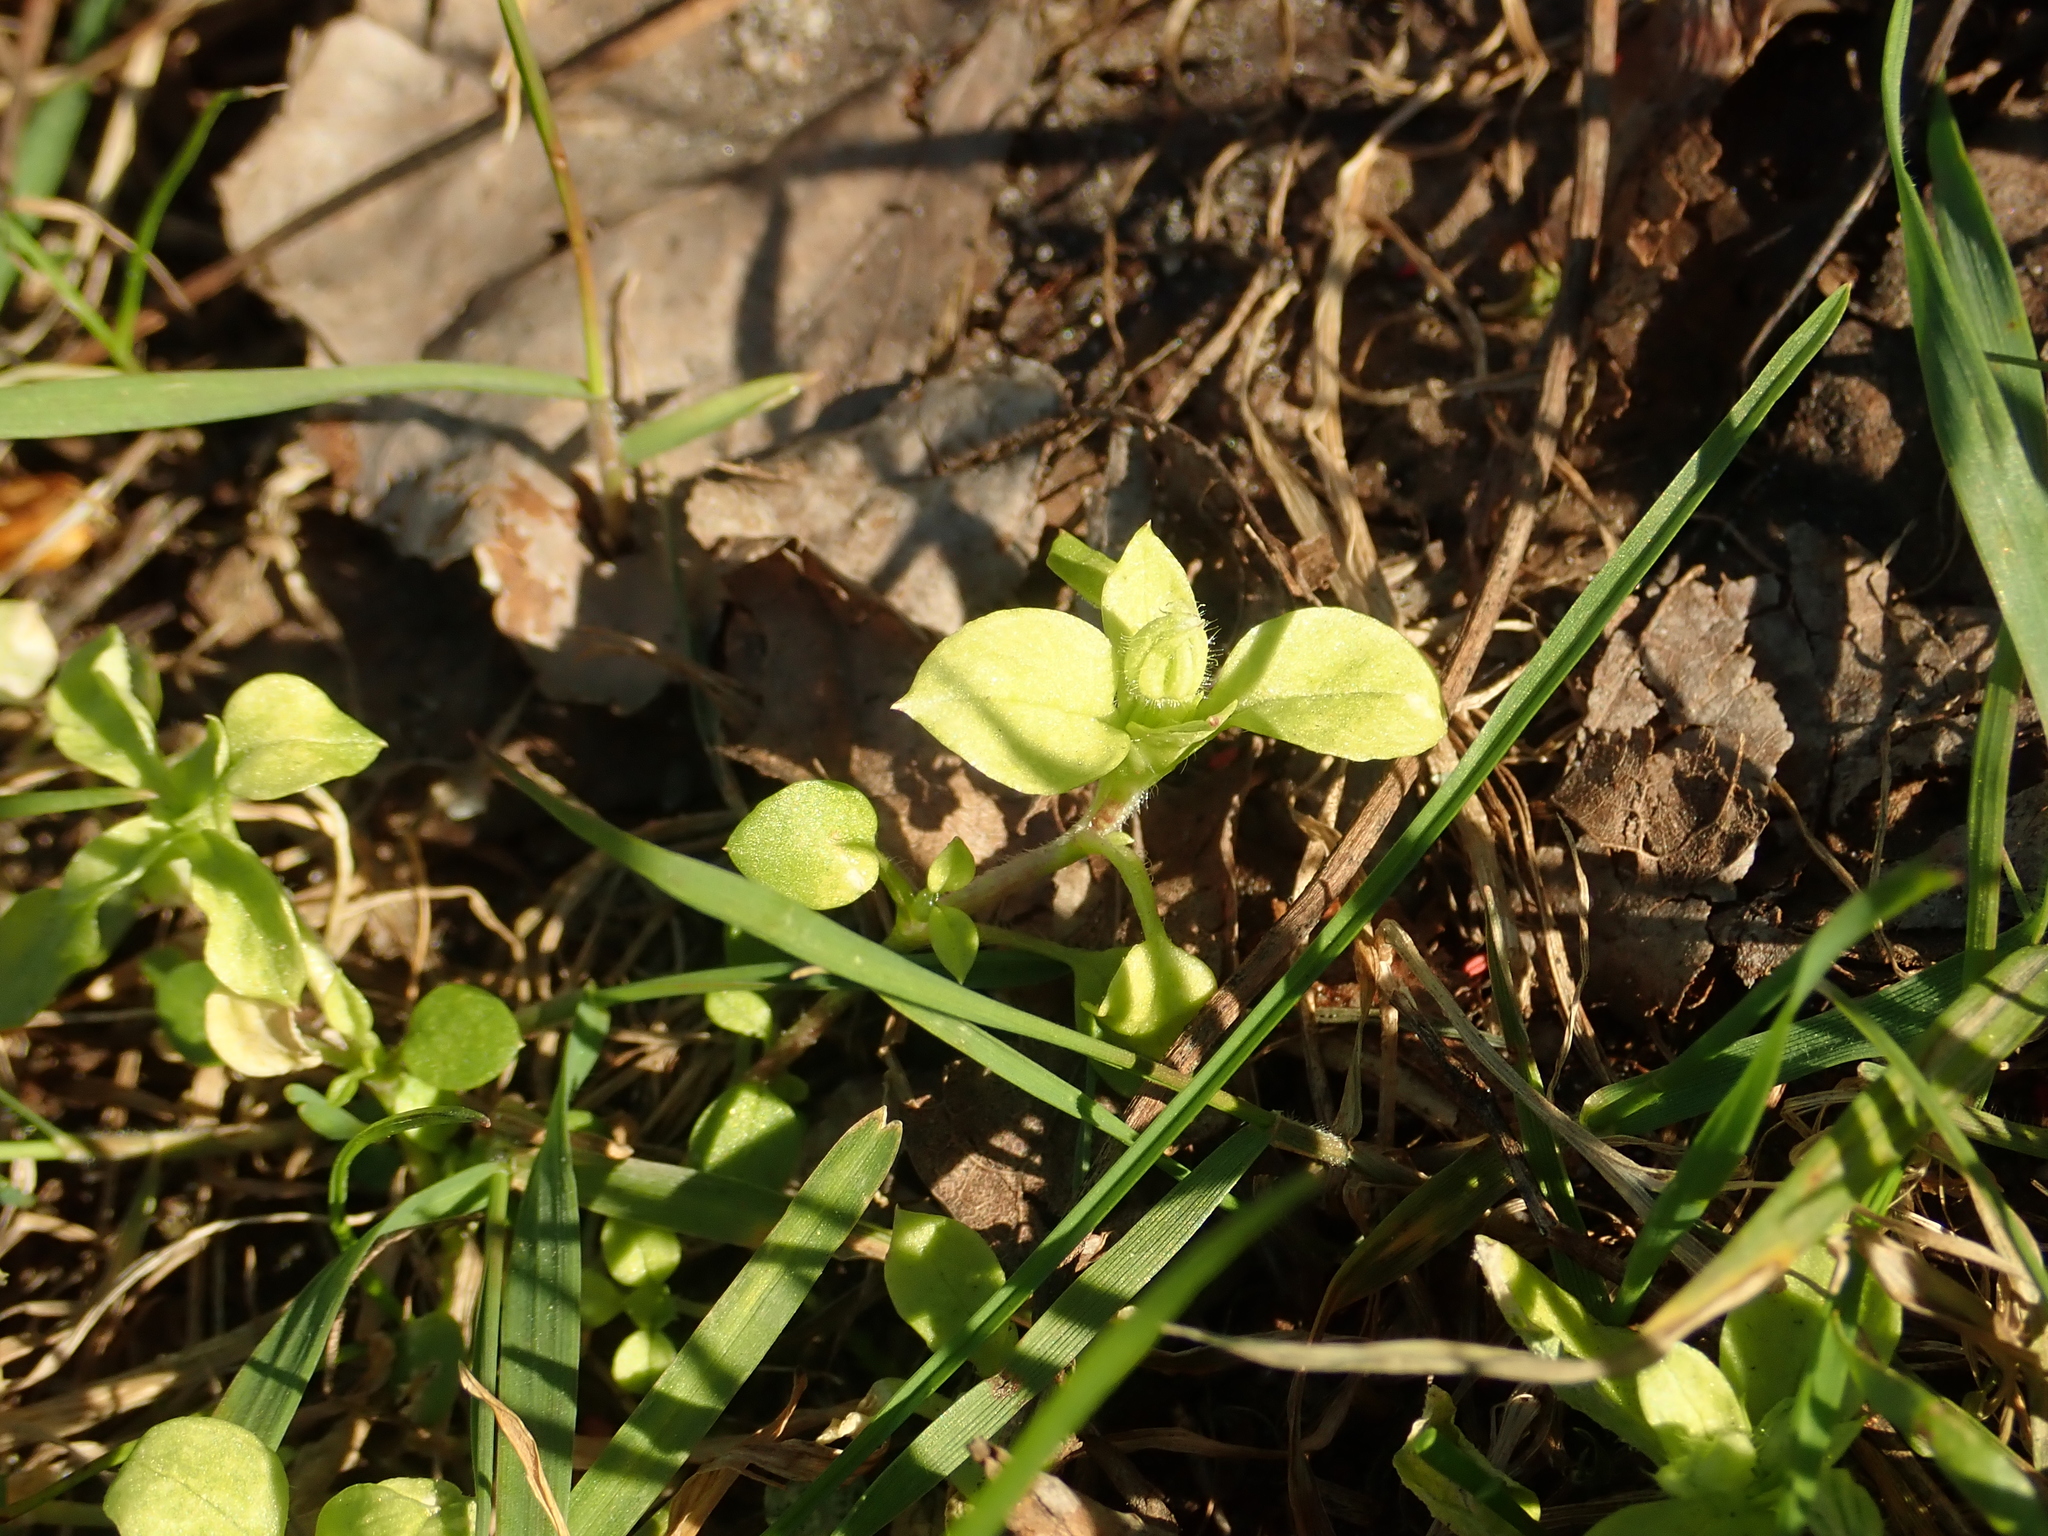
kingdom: Plantae
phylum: Tracheophyta
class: Magnoliopsida
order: Caryophyllales
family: Caryophyllaceae
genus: Stellaria
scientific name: Stellaria media
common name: Common chickweed
